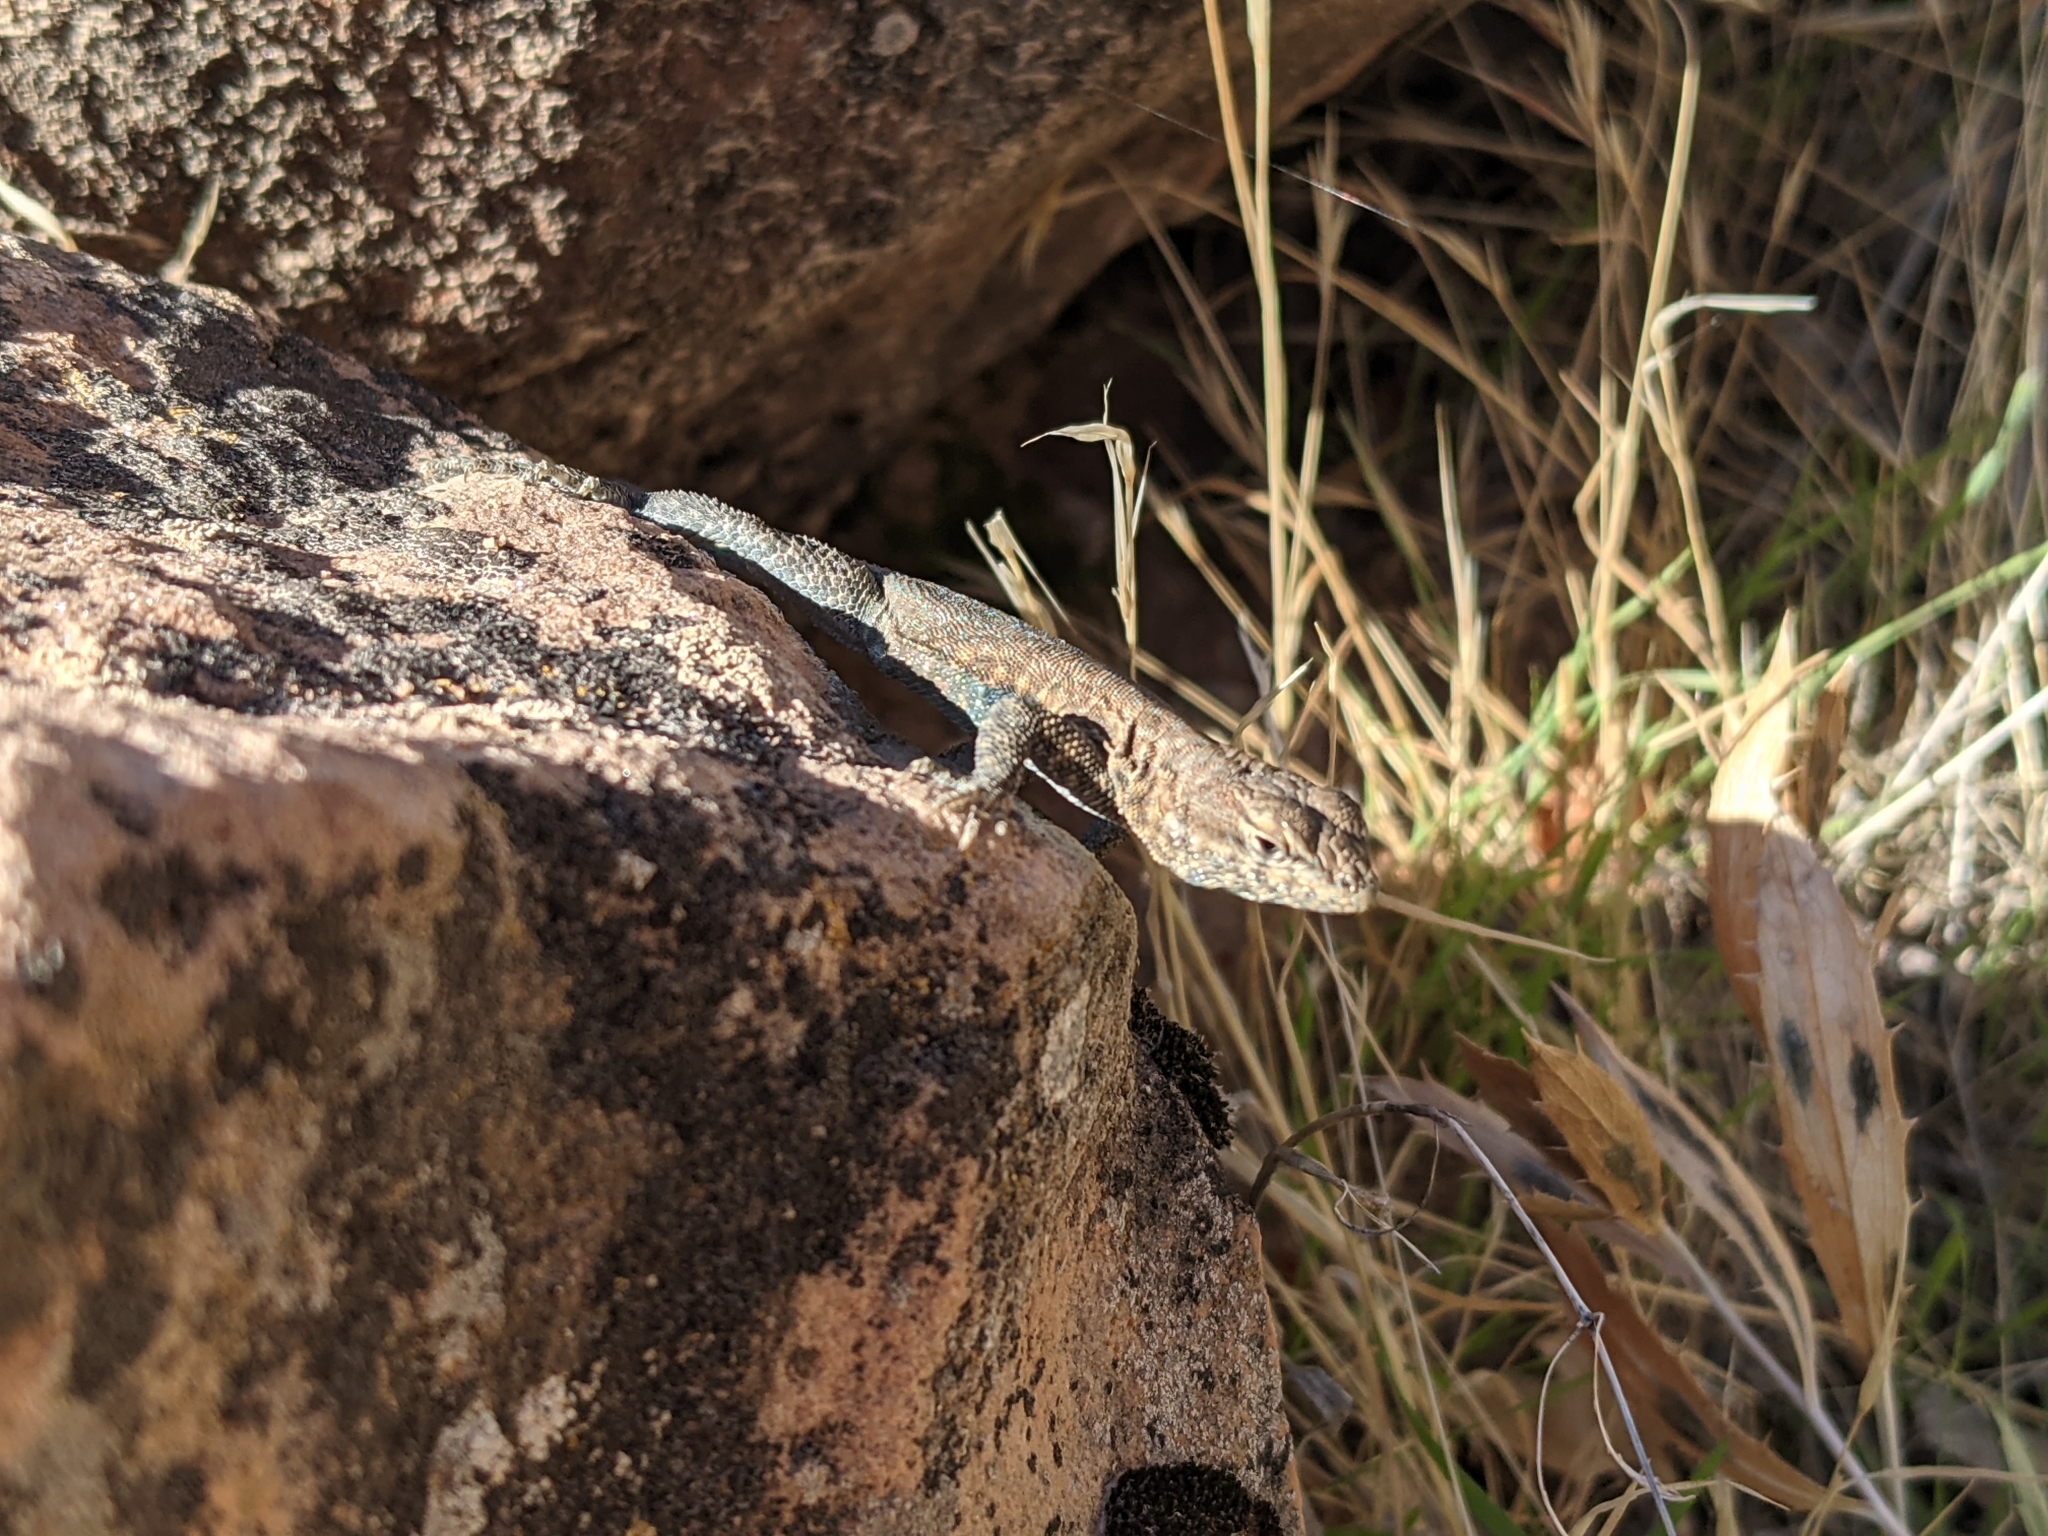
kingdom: Animalia
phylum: Chordata
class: Squamata
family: Phrynosomatidae
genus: Uta
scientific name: Uta stansburiana
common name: Side-blotched lizard
